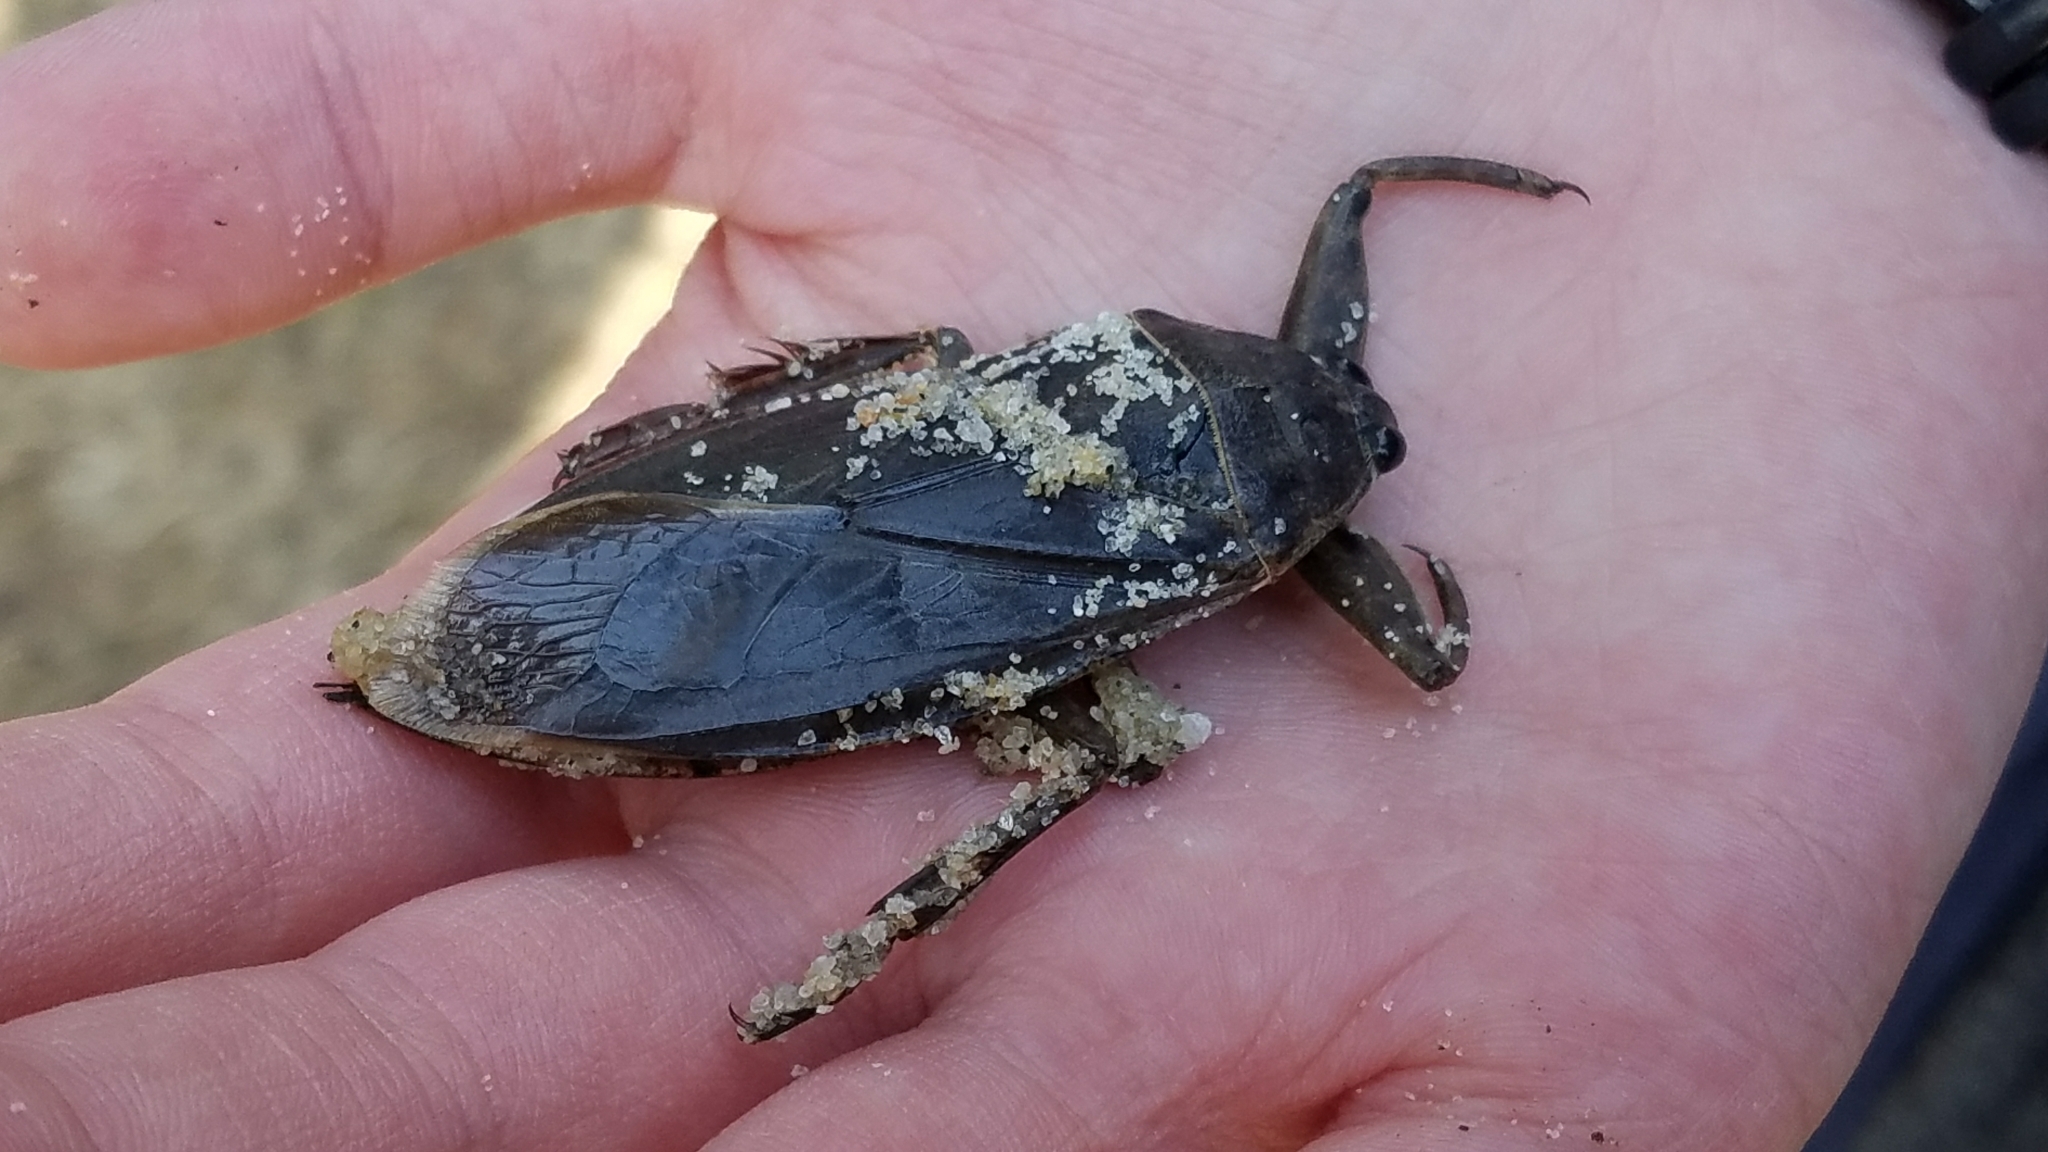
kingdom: Animalia
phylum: Arthropoda
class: Insecta
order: Hemiptera
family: Belostomatidae
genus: Lethocerus
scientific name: Lethocerus americanus
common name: Giant water bug
